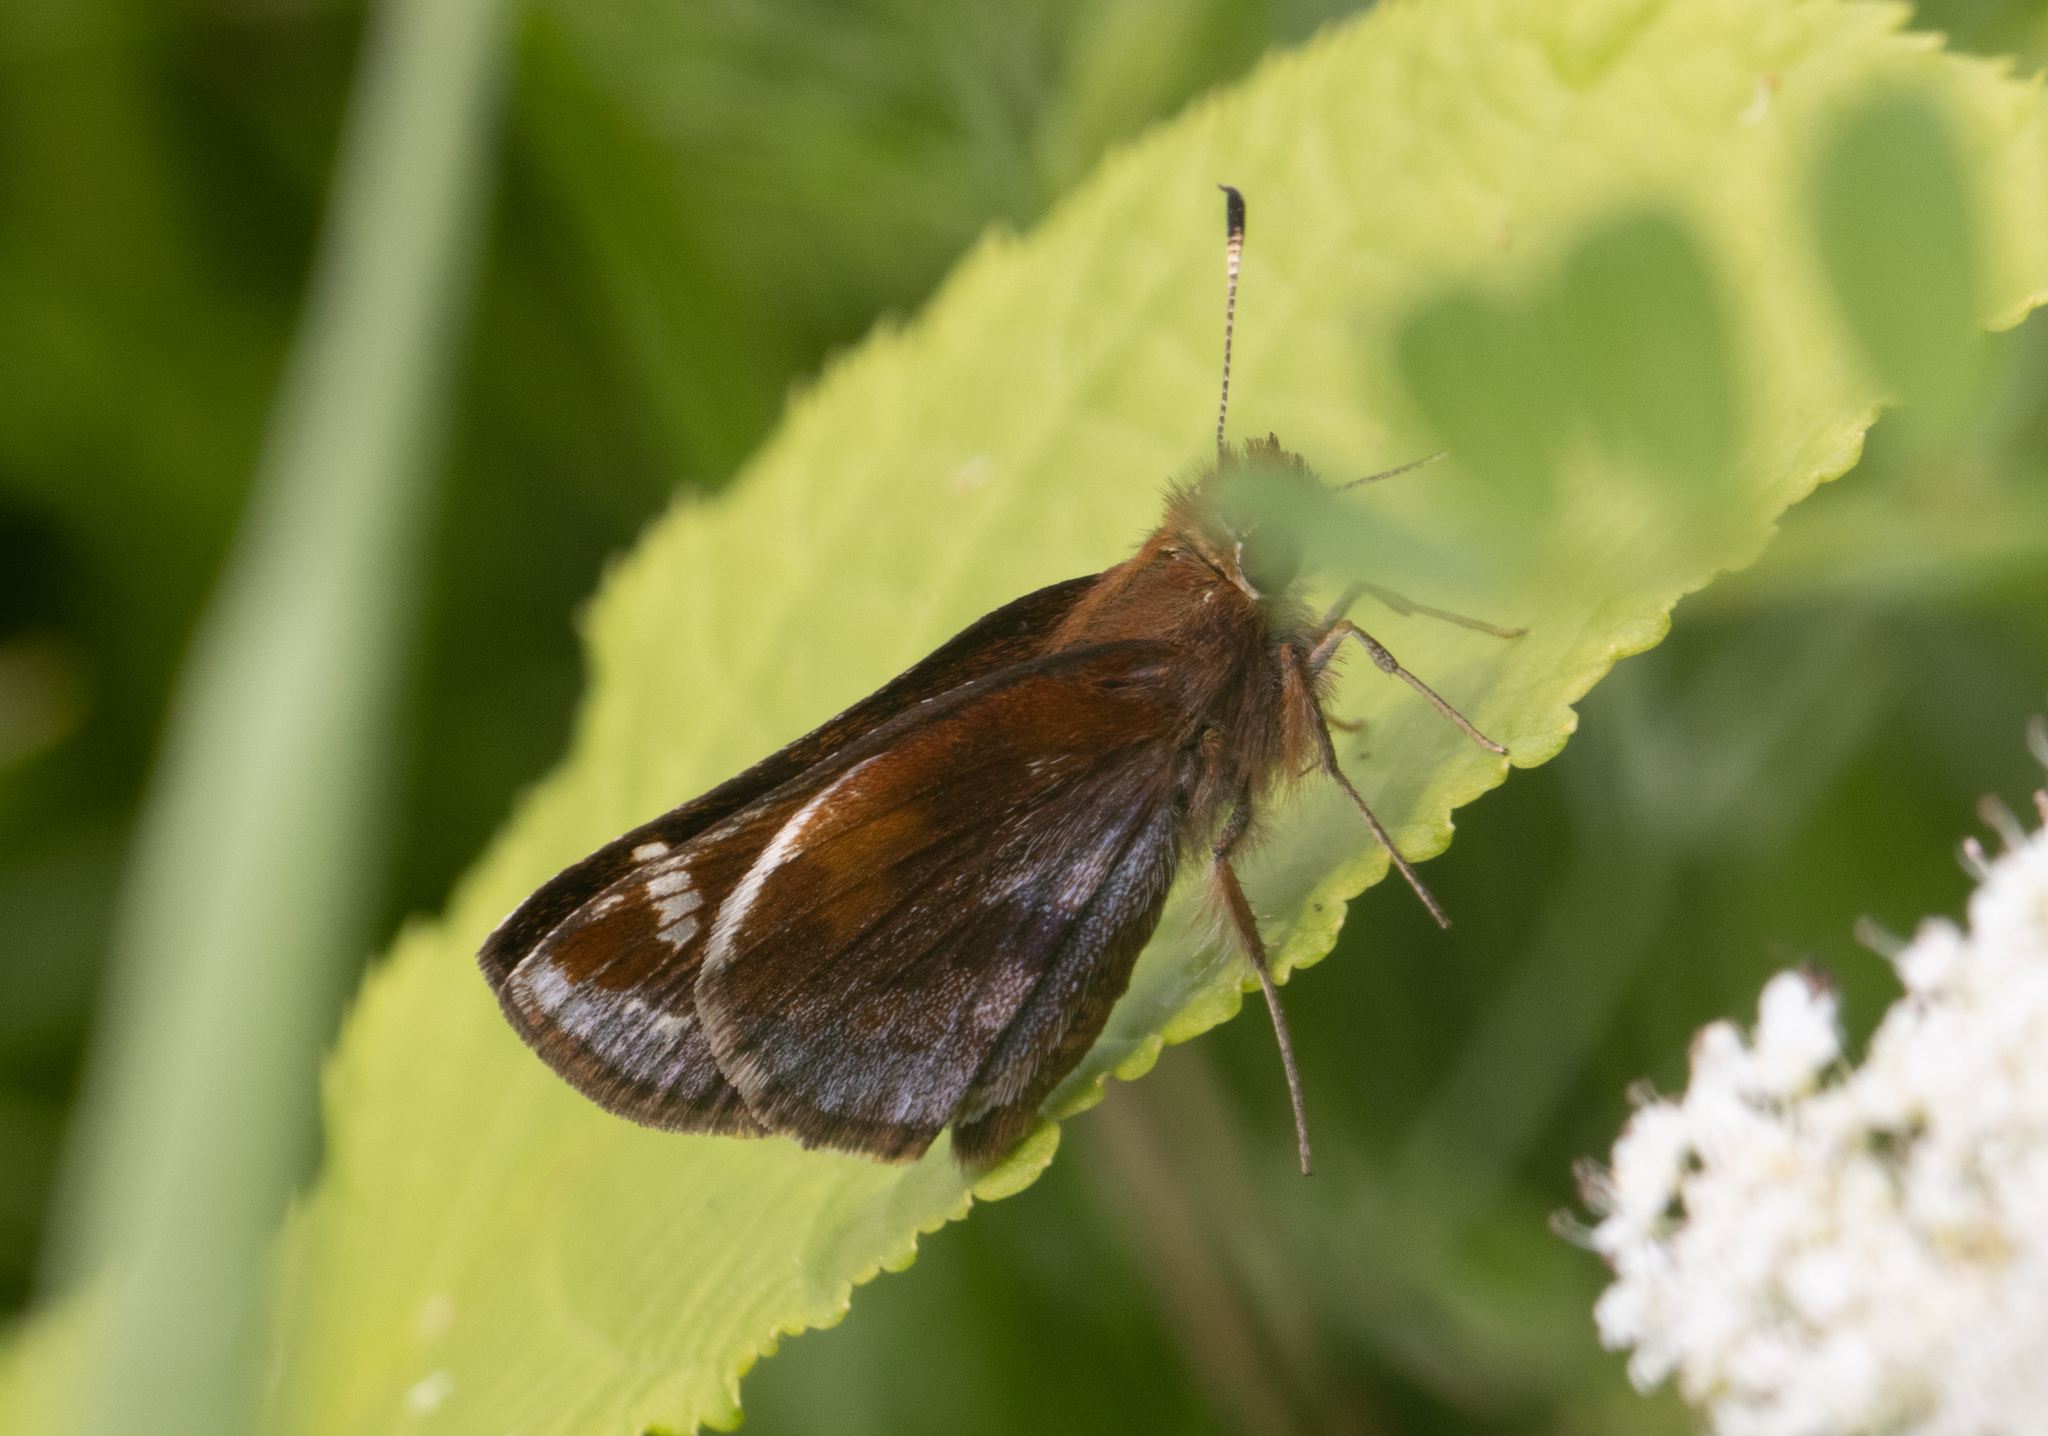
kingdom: Animalia
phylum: Arthropoda
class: Insecta
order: Lepidoptera
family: Hesperiidae
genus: Lon
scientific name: Lon zabulon
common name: Zabulon skipper
